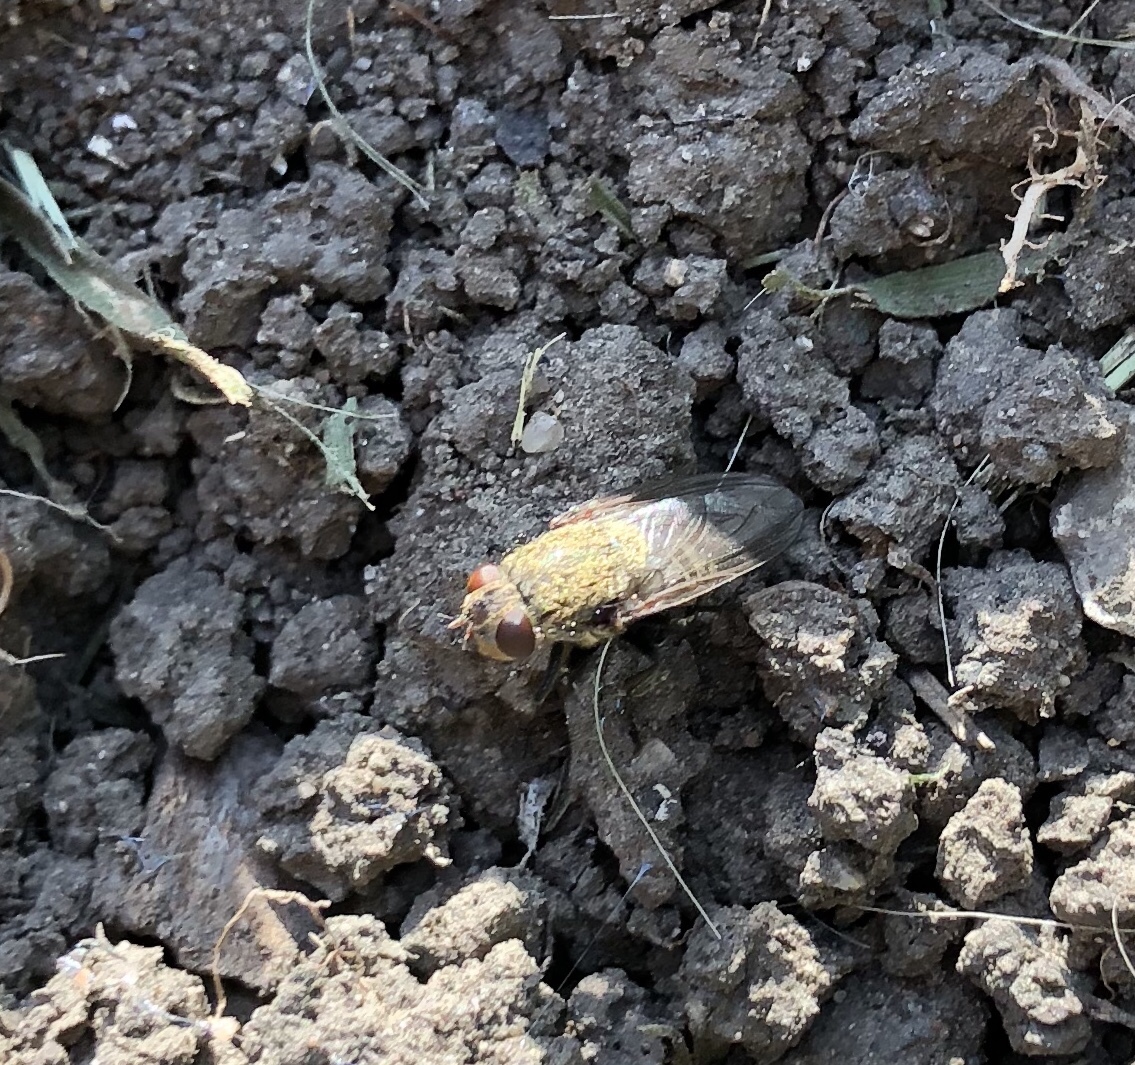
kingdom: Animalia
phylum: Arthropoda
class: Insecta
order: Diptera
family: Polleniidae
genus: Pollenia
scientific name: Pollenia
